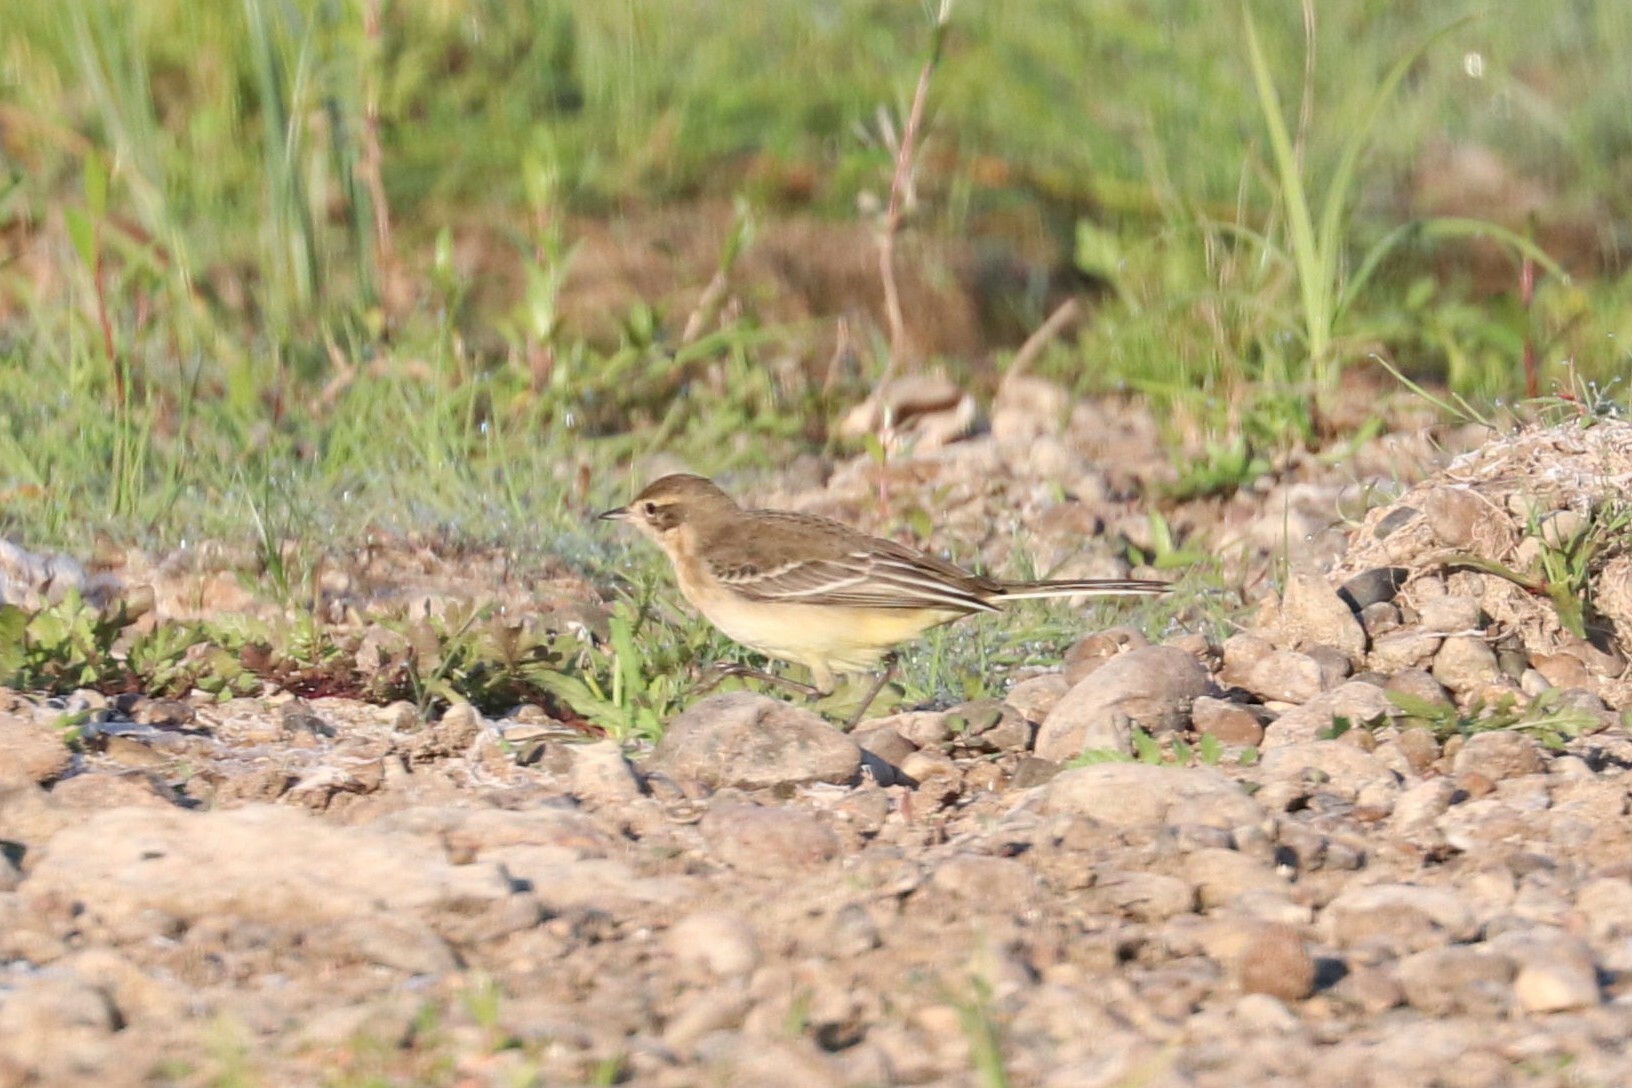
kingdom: Animalia
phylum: Chordata
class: Aves
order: Passeriformes
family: Motacillidae
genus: Motacilla
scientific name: Motacilla flava
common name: Western yellow wagtail
